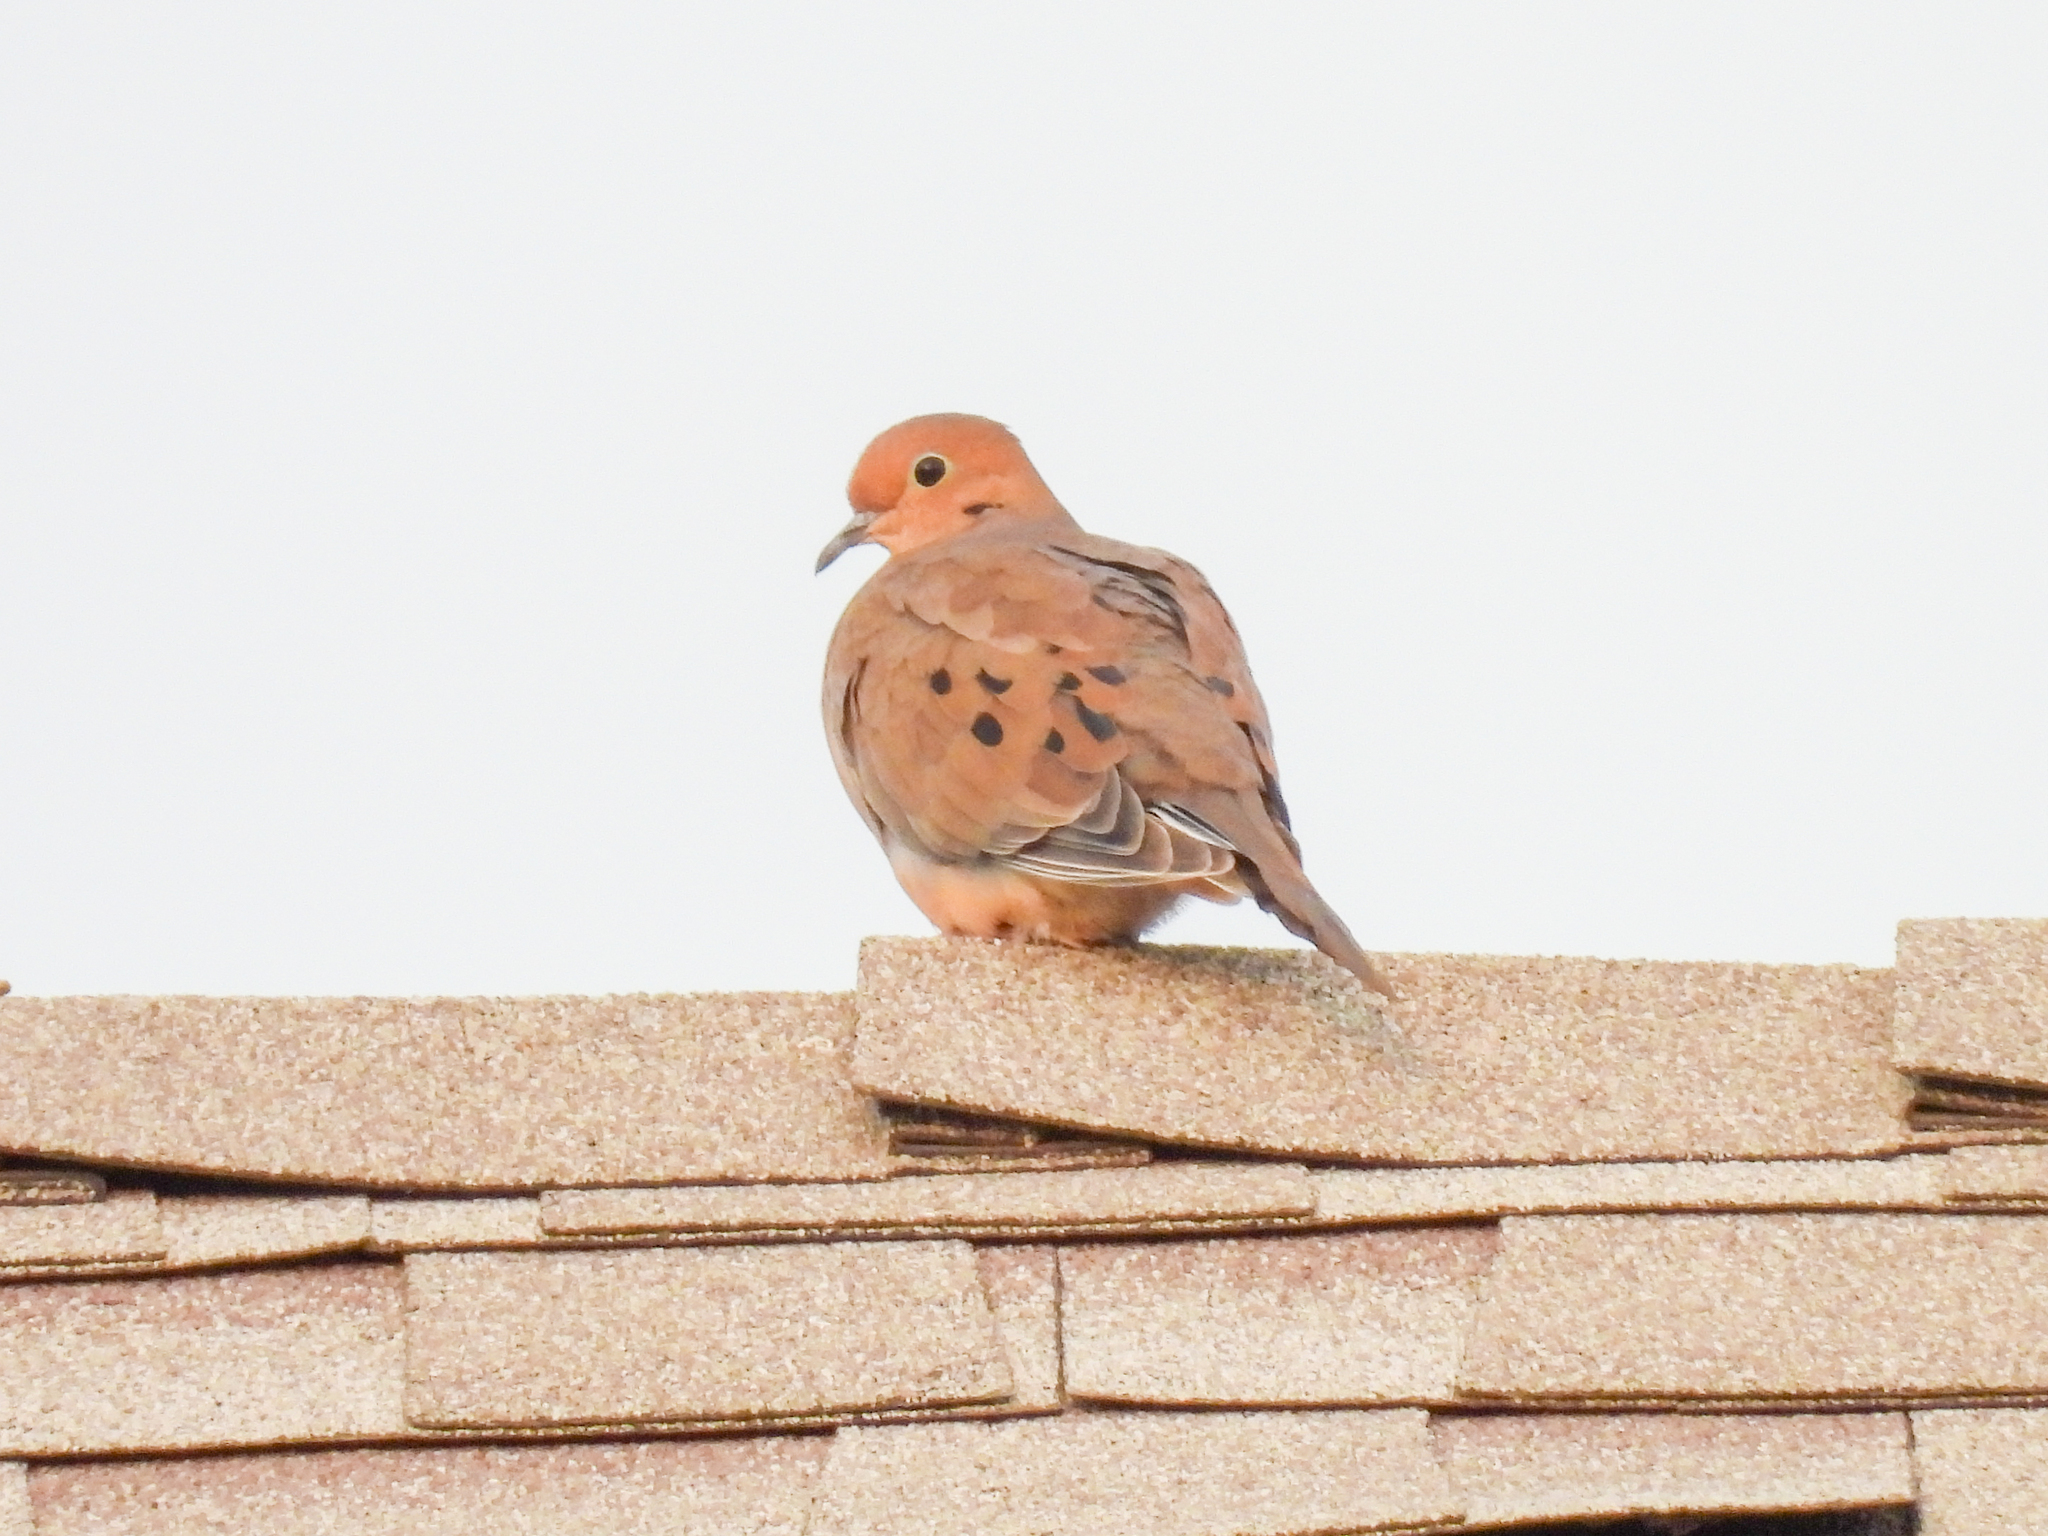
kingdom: Animalia
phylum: Chordata
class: Aves
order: Columbiformes
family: Columbidae
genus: Zenaida
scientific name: Zenaida macroura
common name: Mourning dove
